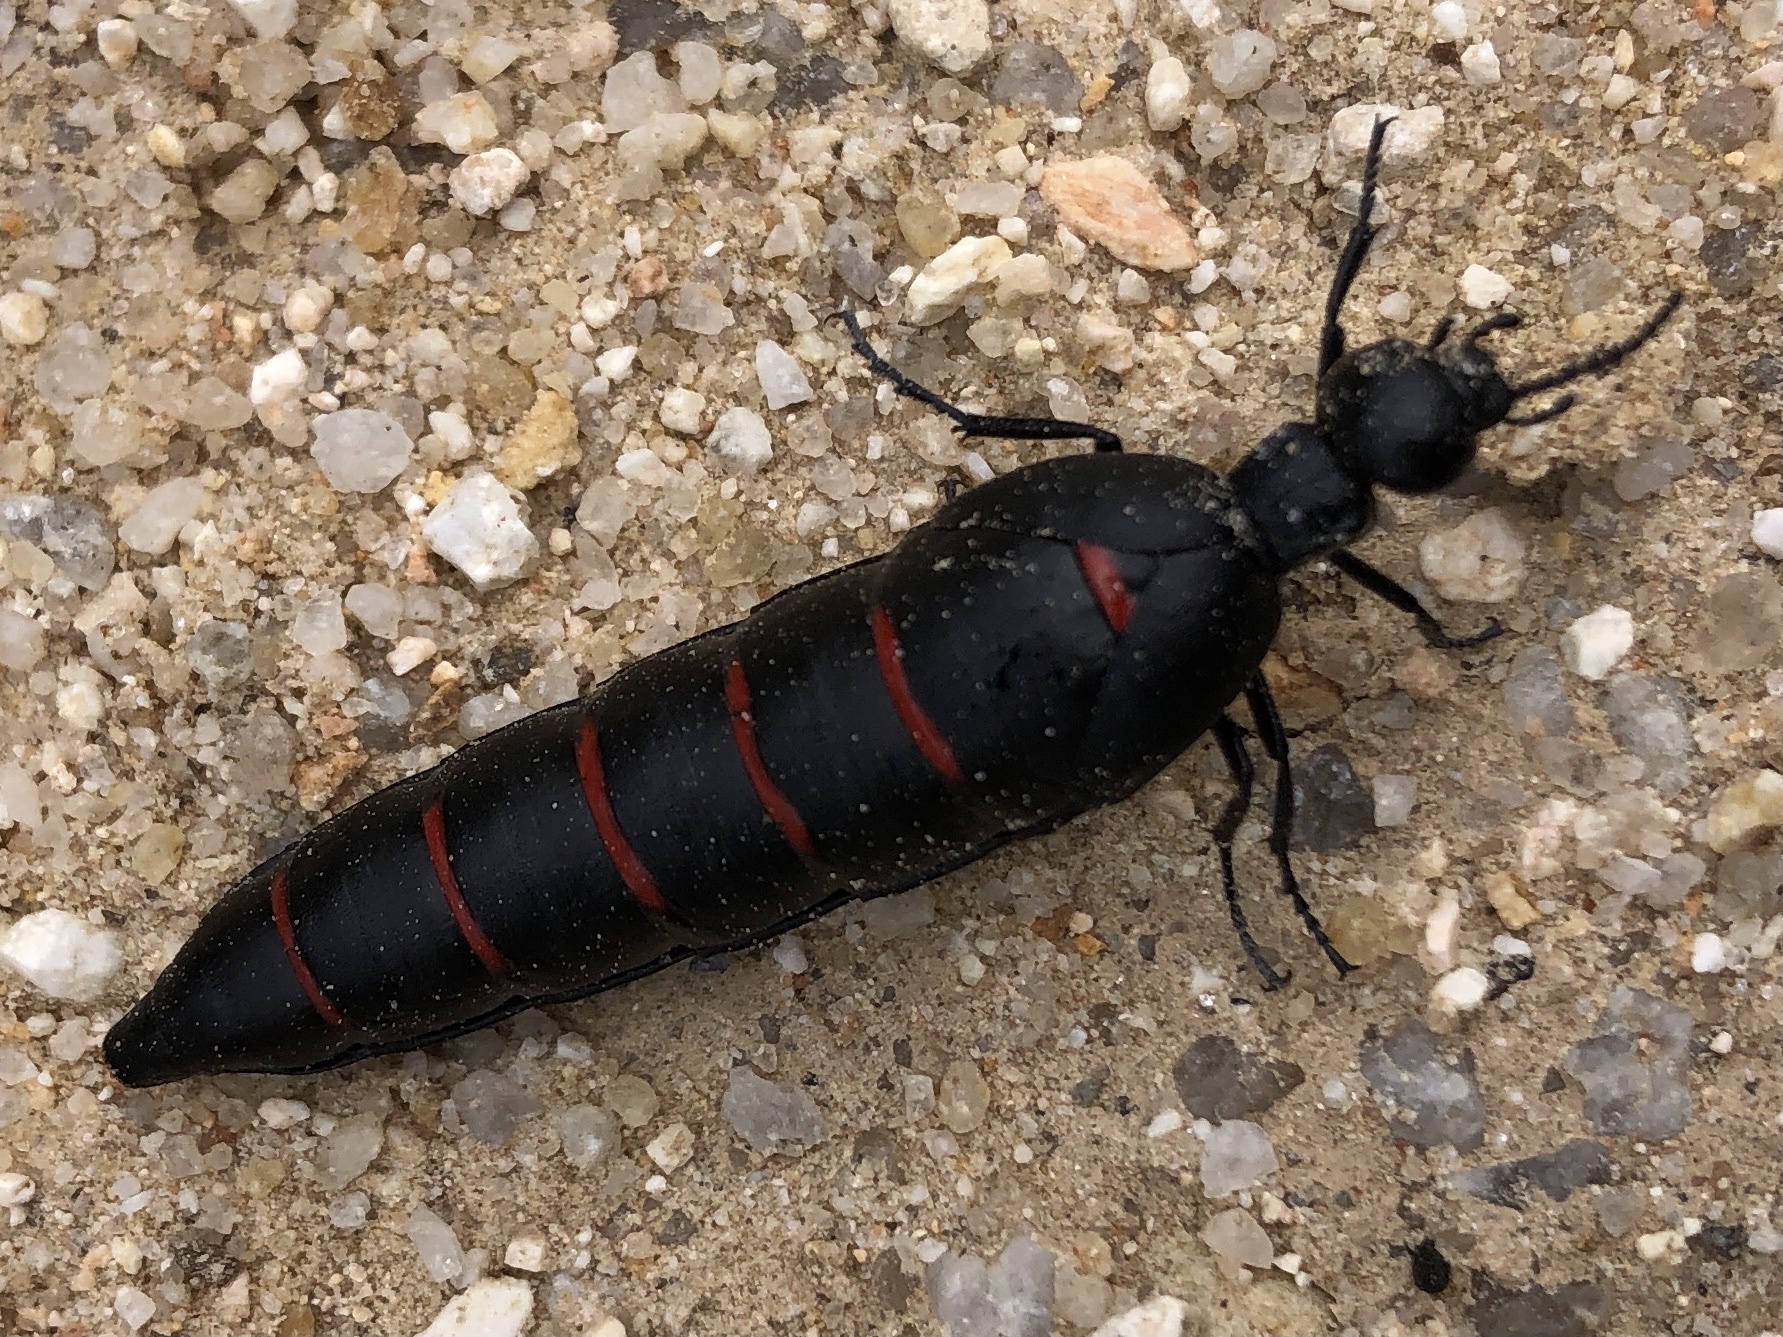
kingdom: Animalia
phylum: Arthropoda
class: Insecta
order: Coleoptera
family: Meloidae
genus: Berberomeloe
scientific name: Berberomeloe majalis
